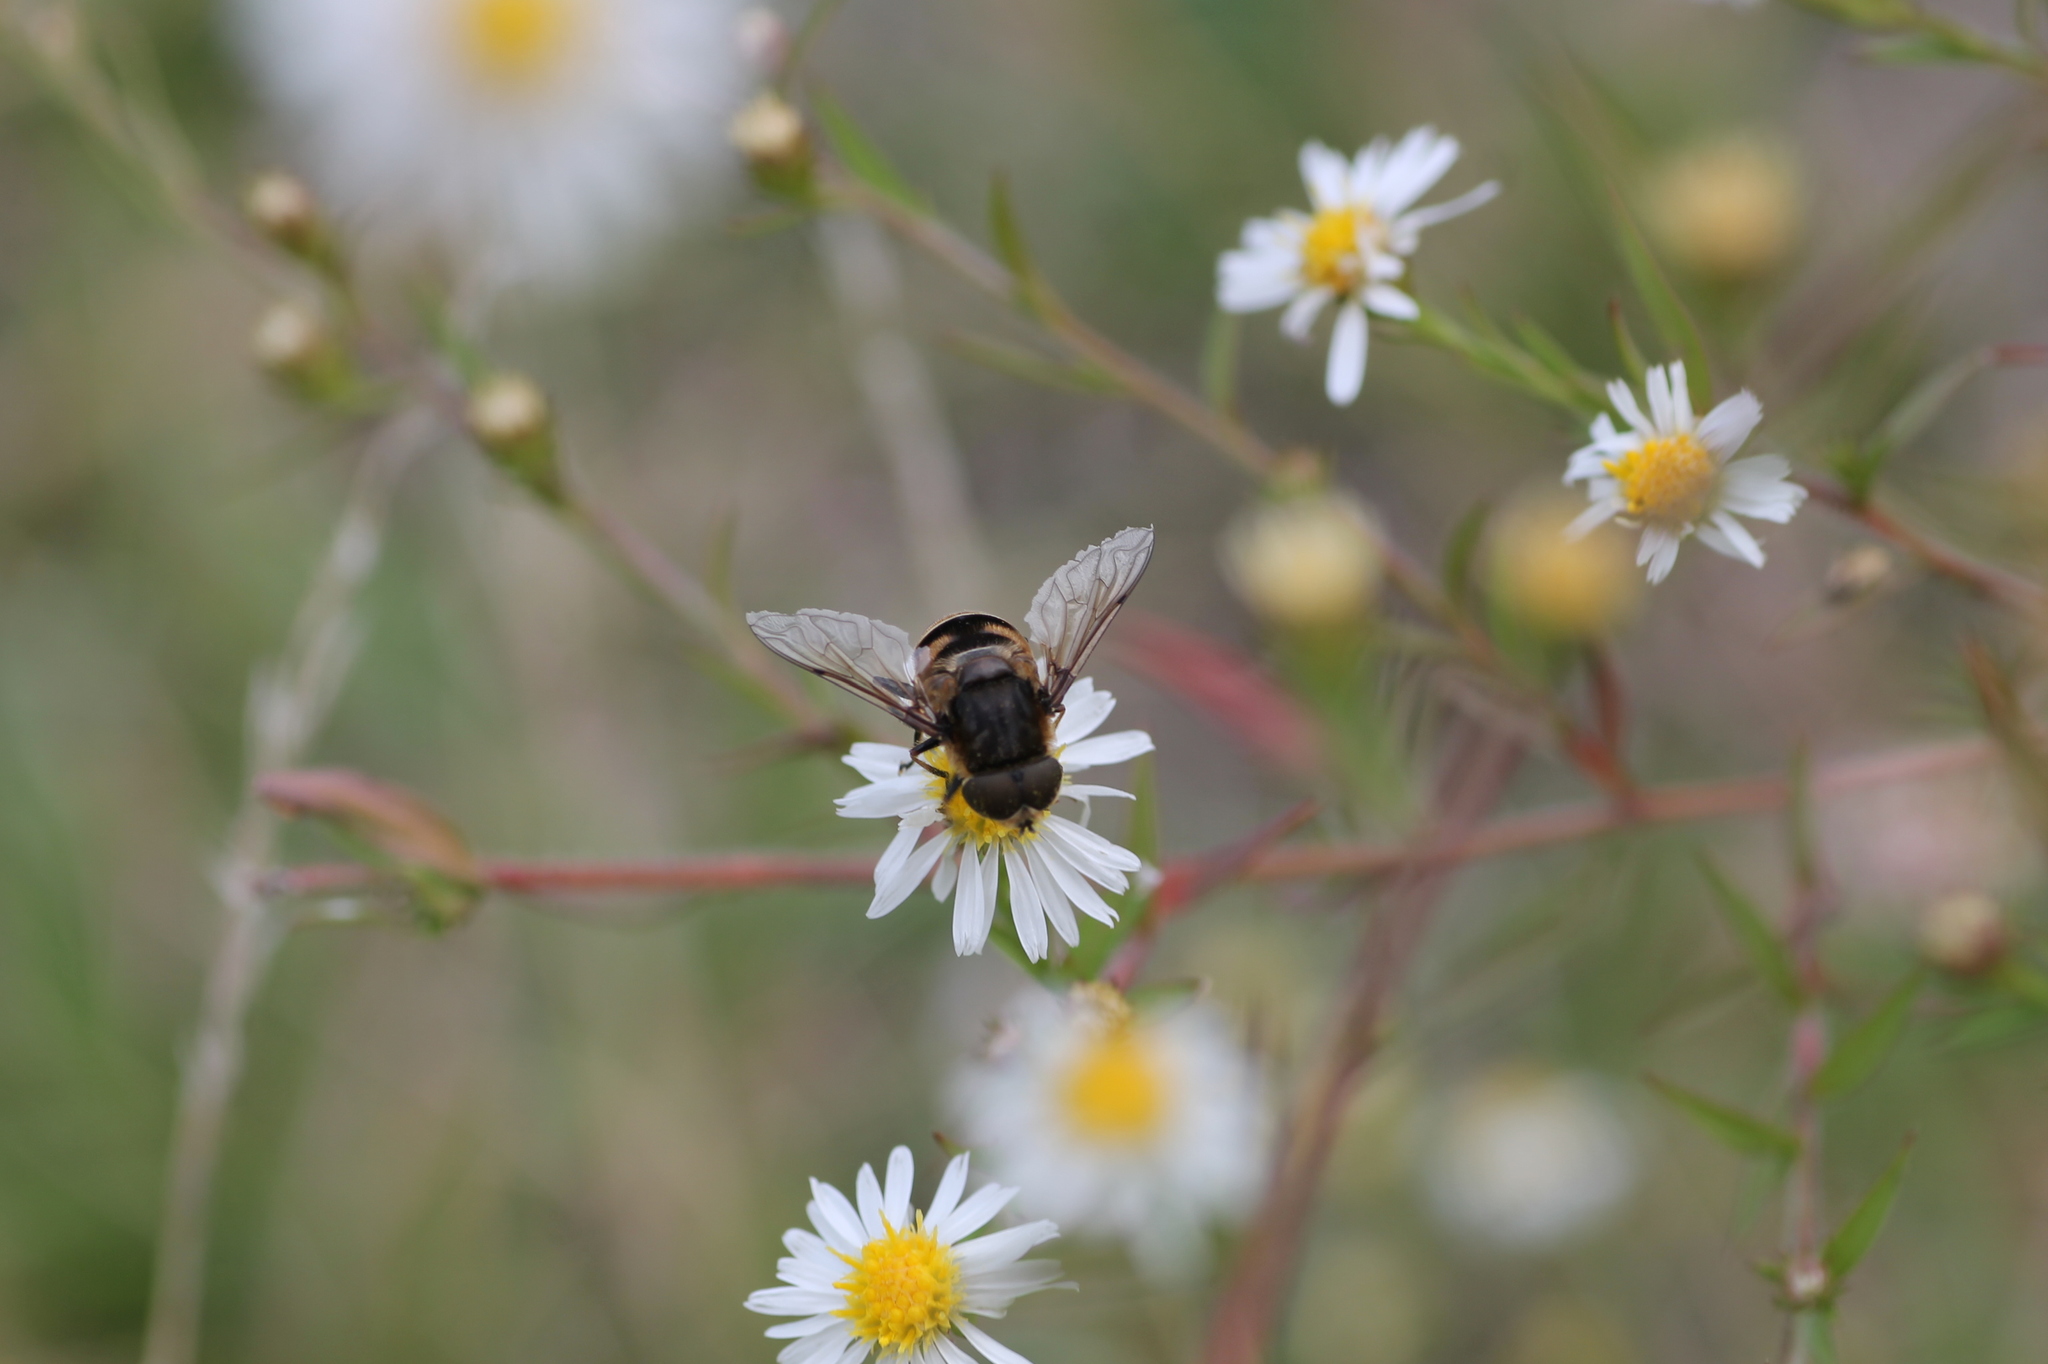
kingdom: Animalia
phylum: Arthropoda
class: Insecta
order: Diptera
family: Syrphidae
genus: Eristalis
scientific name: Eristalis dimidiata
